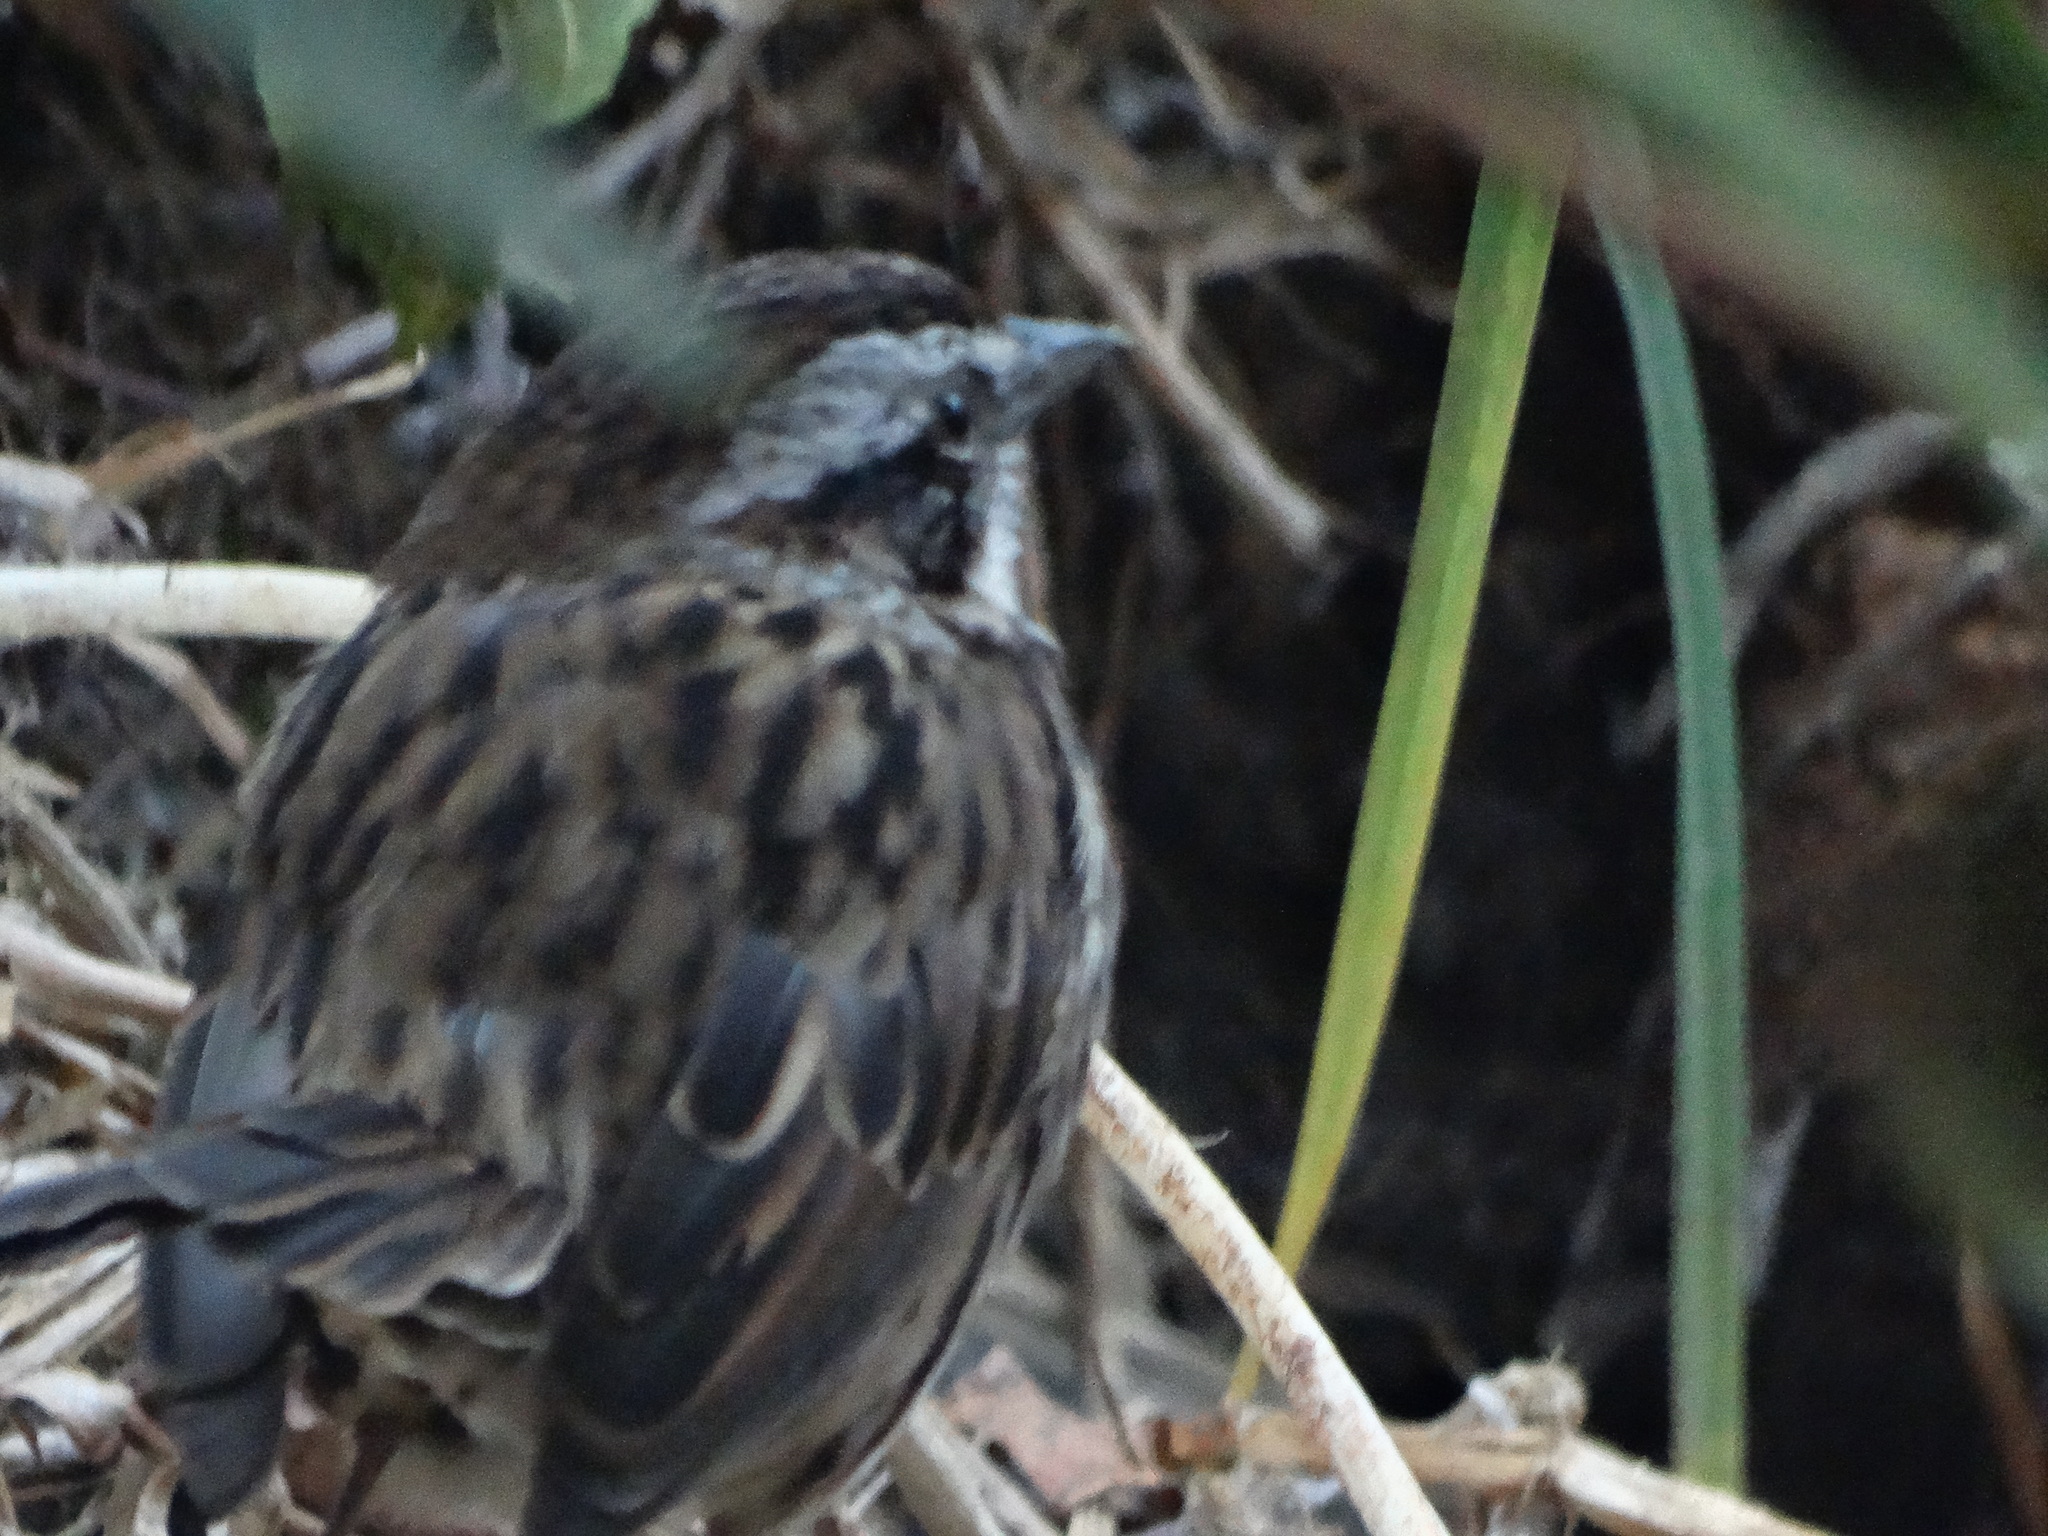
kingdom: Animalia
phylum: Chordata
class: Aves
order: Passeriformes
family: Passerellidae
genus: Melospiza
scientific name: Melospiza melodia
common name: Song sparrow
